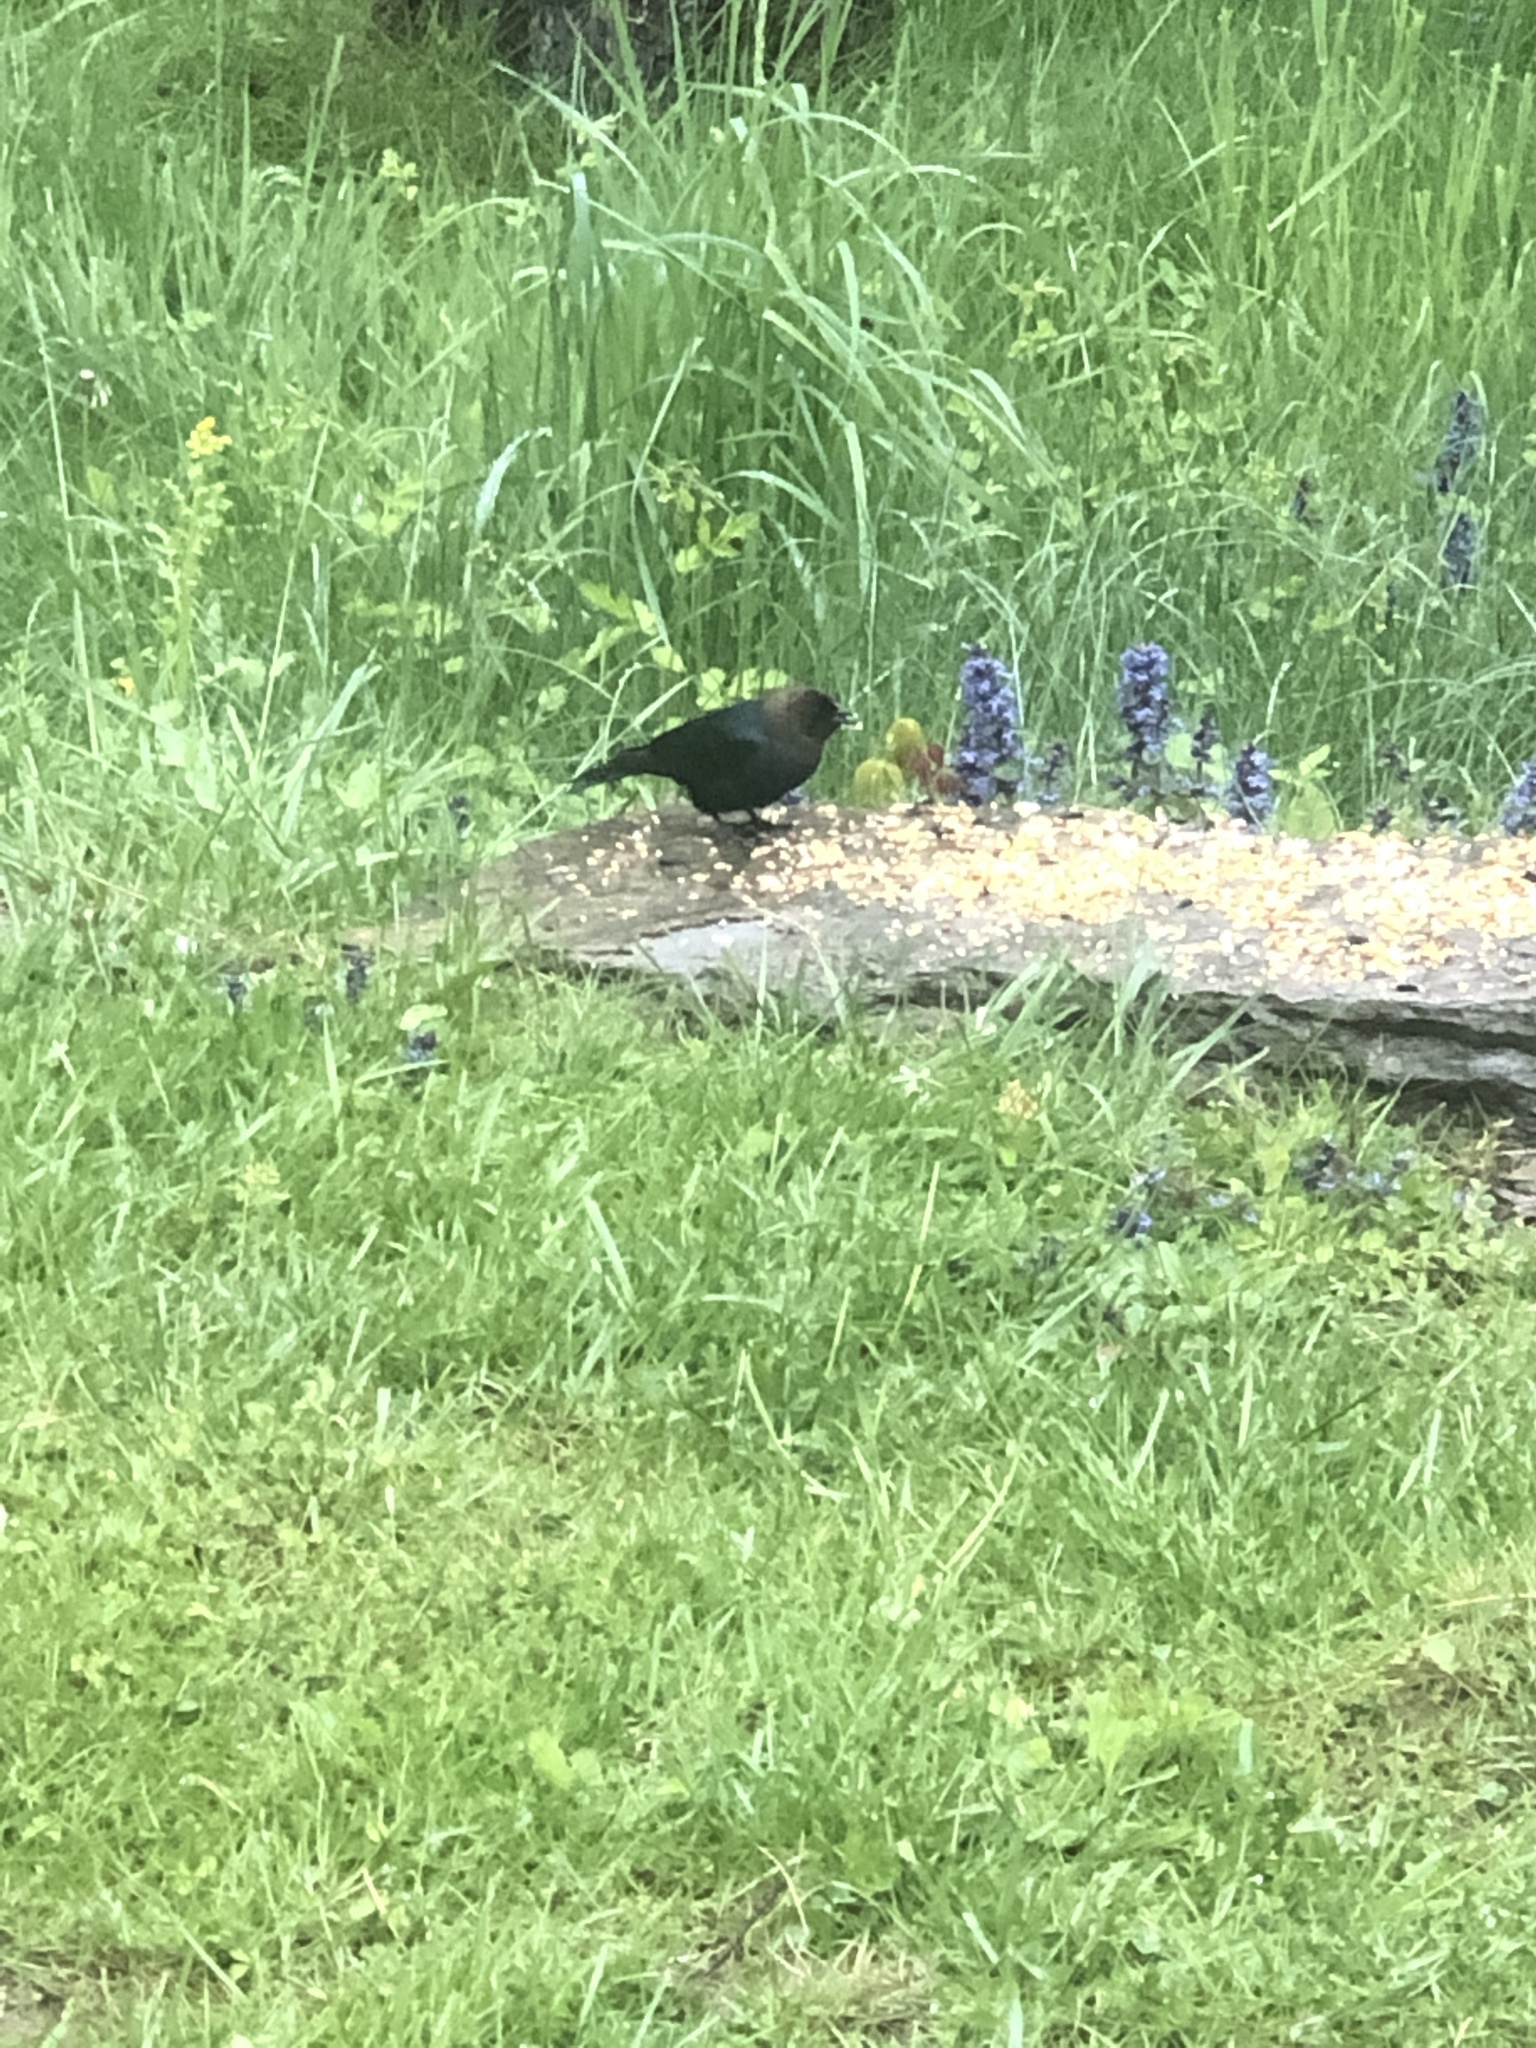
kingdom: Animalia
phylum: Chordata
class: Aves
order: Passeriformes
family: Icteridae
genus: Molothrus
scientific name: Molothrus ater
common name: Brown-headed cowbird
